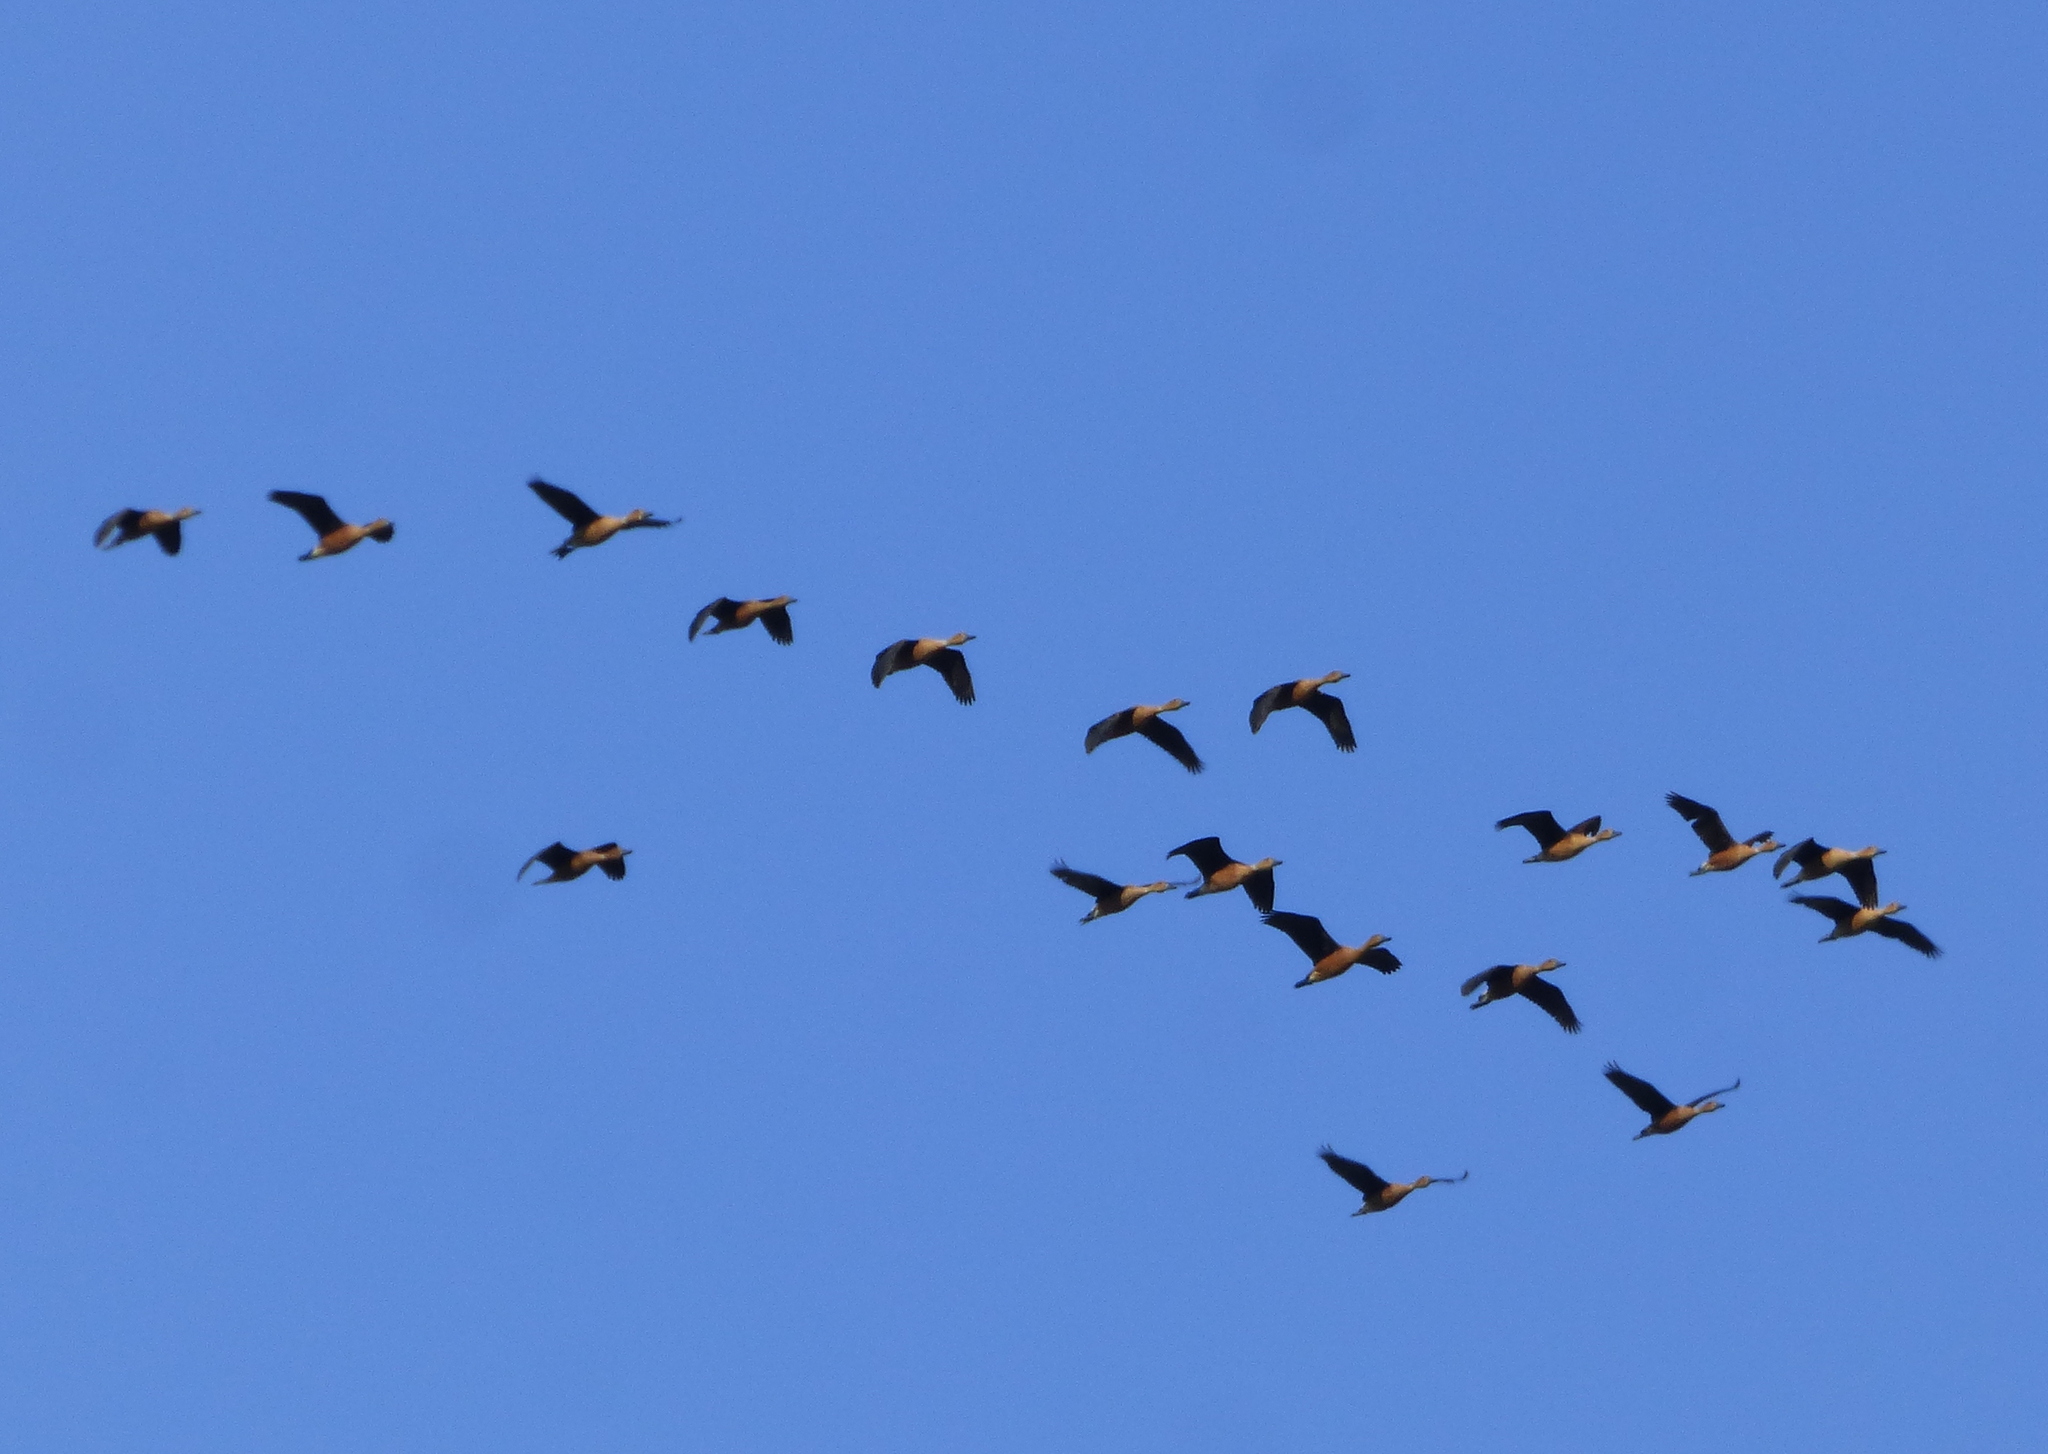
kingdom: Animalia
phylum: Chordata
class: Aves
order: Anseriformes
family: Anatidae
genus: Dendrocygna
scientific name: Dendrocygna bicolor
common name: Fulvous whistling duck
